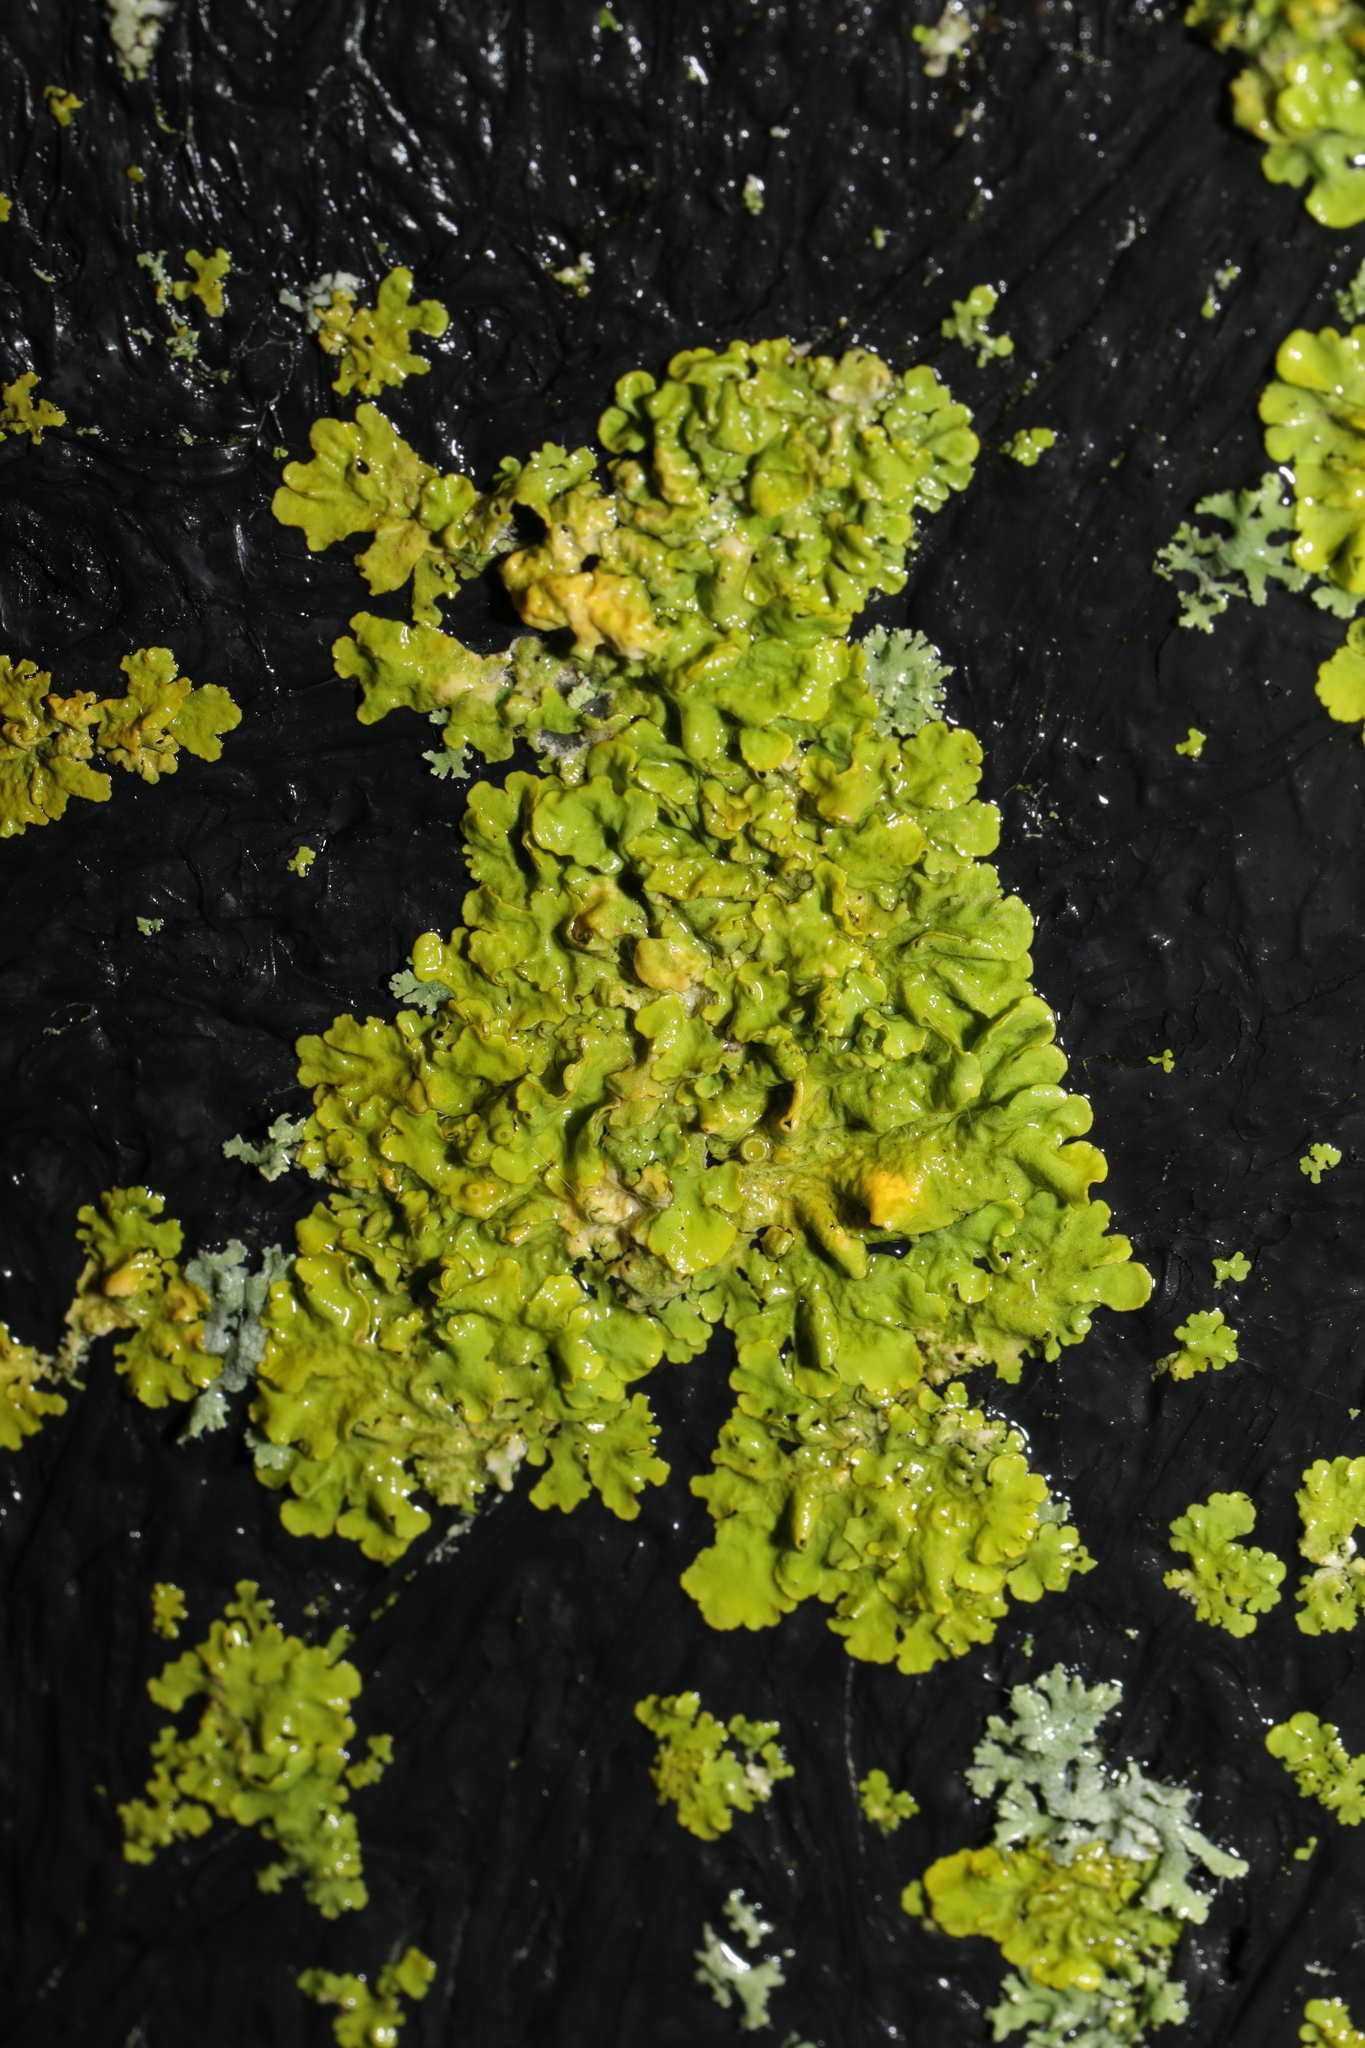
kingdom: Fungi
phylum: Ascomycota
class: Lecanoromycetes
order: Teloschistales
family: Teloschistaceae
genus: Xanthoria
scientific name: Xanthoria parietina
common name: Common orange lichen
